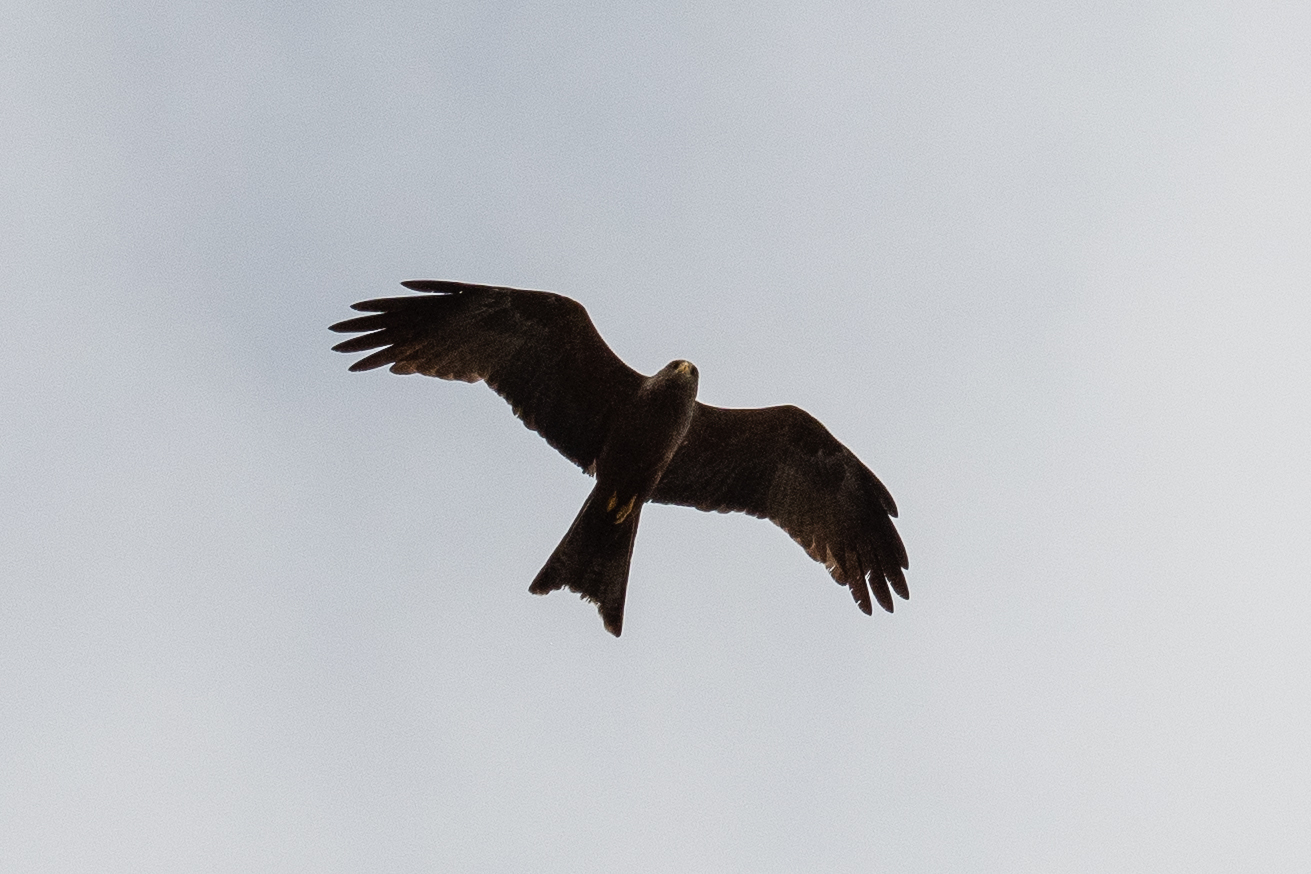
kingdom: Animalia
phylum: Chordata
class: Aves
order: Accipitriformes
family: Accipitridae
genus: Milvus
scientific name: Milvus migrans
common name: Black kite
